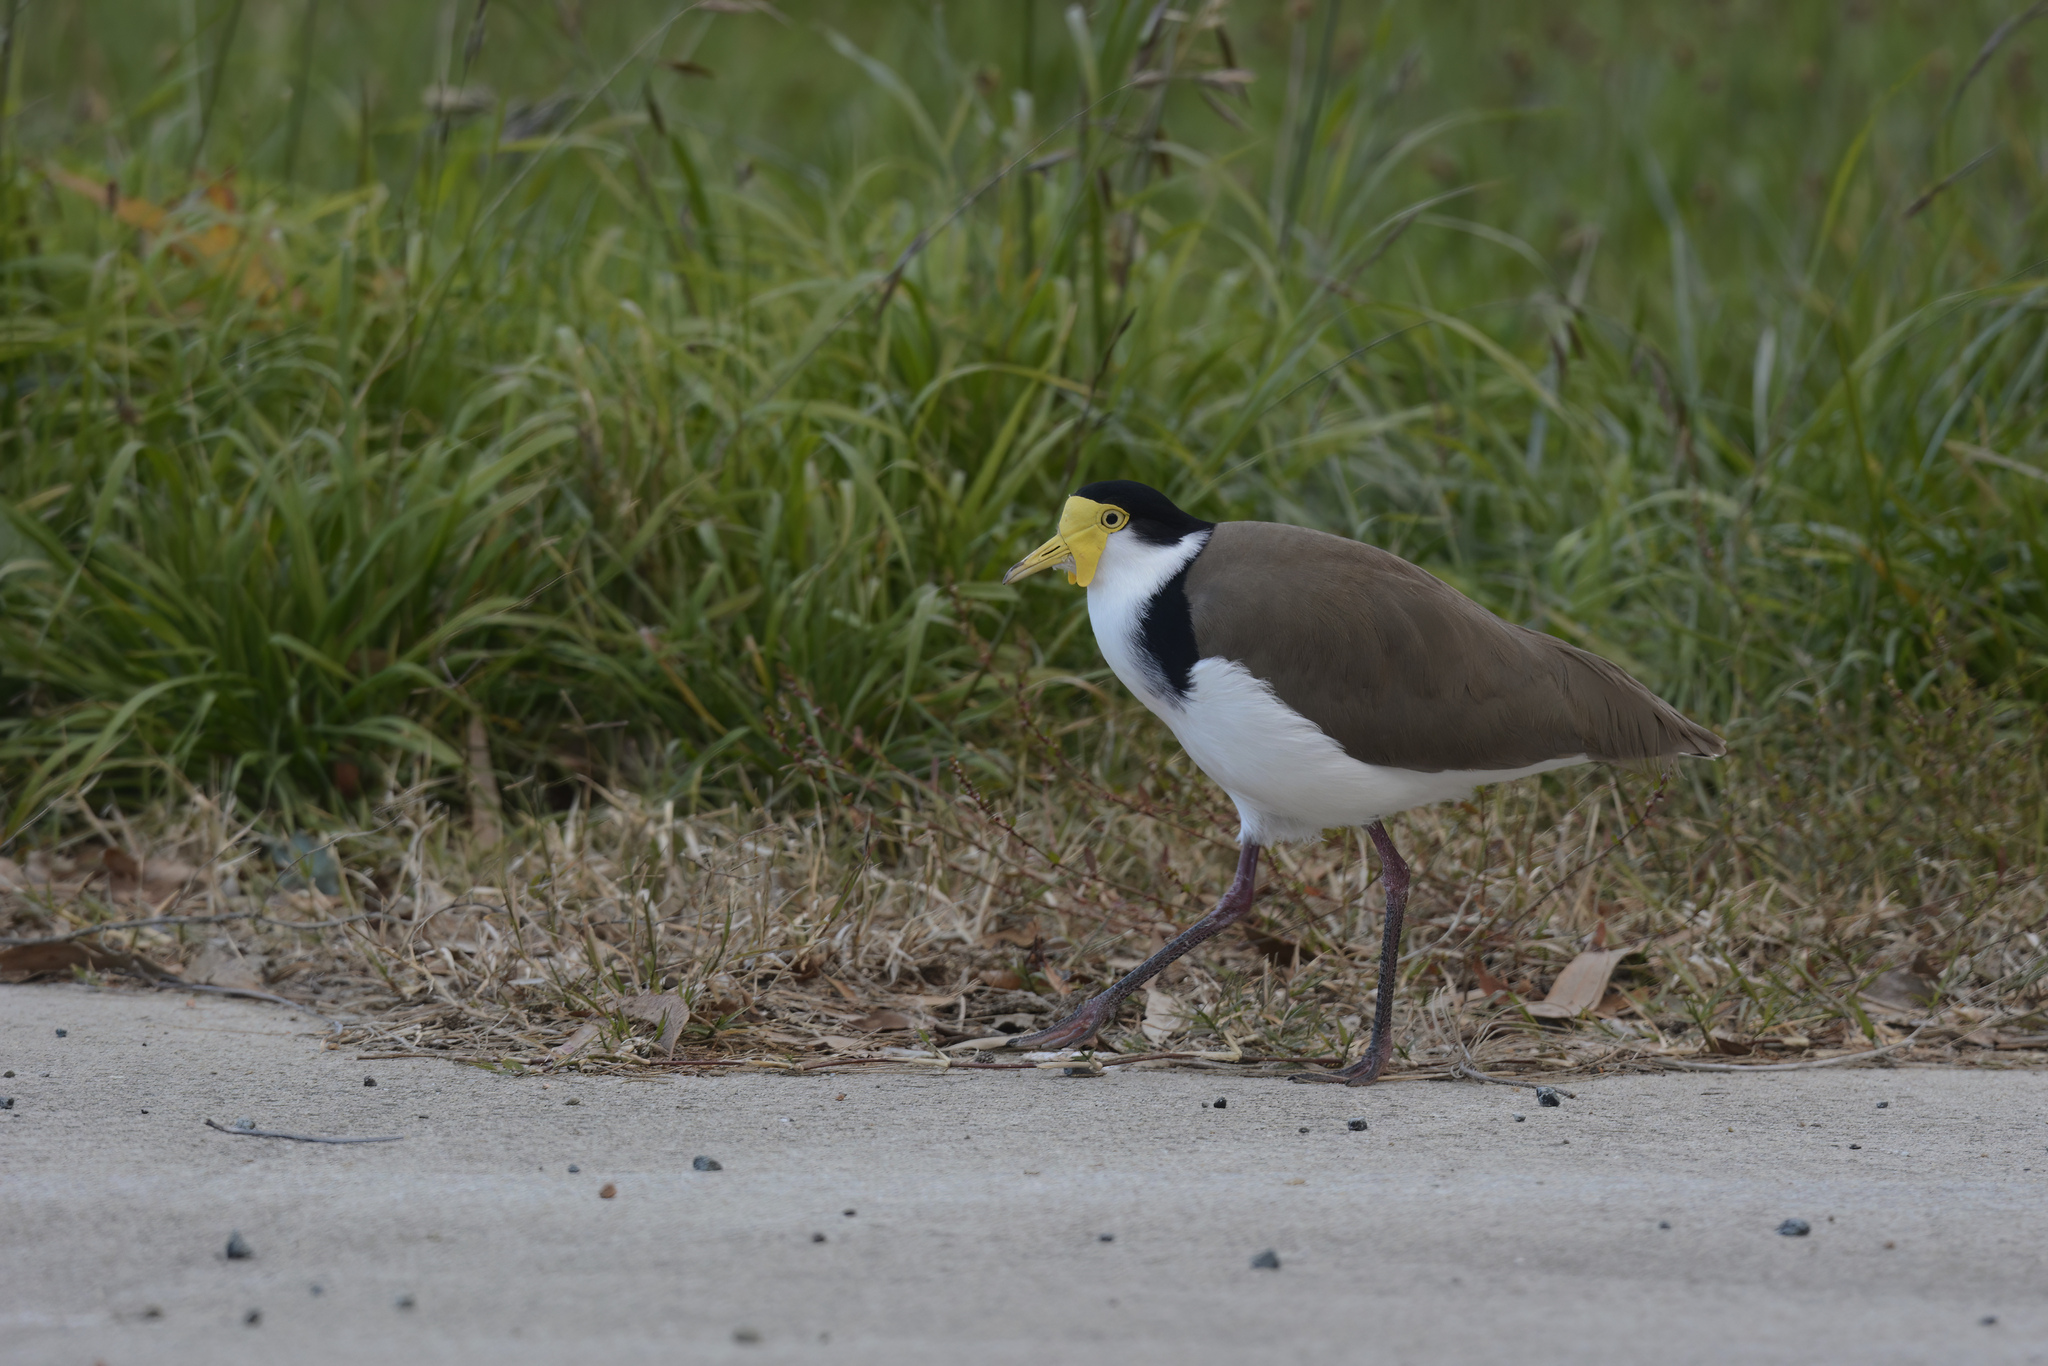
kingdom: Animalia
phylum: Chordata
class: Aves
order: Charadriiformes
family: Charadriidae
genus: Vanellus
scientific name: Vanellus miles
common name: Masked lapwing
